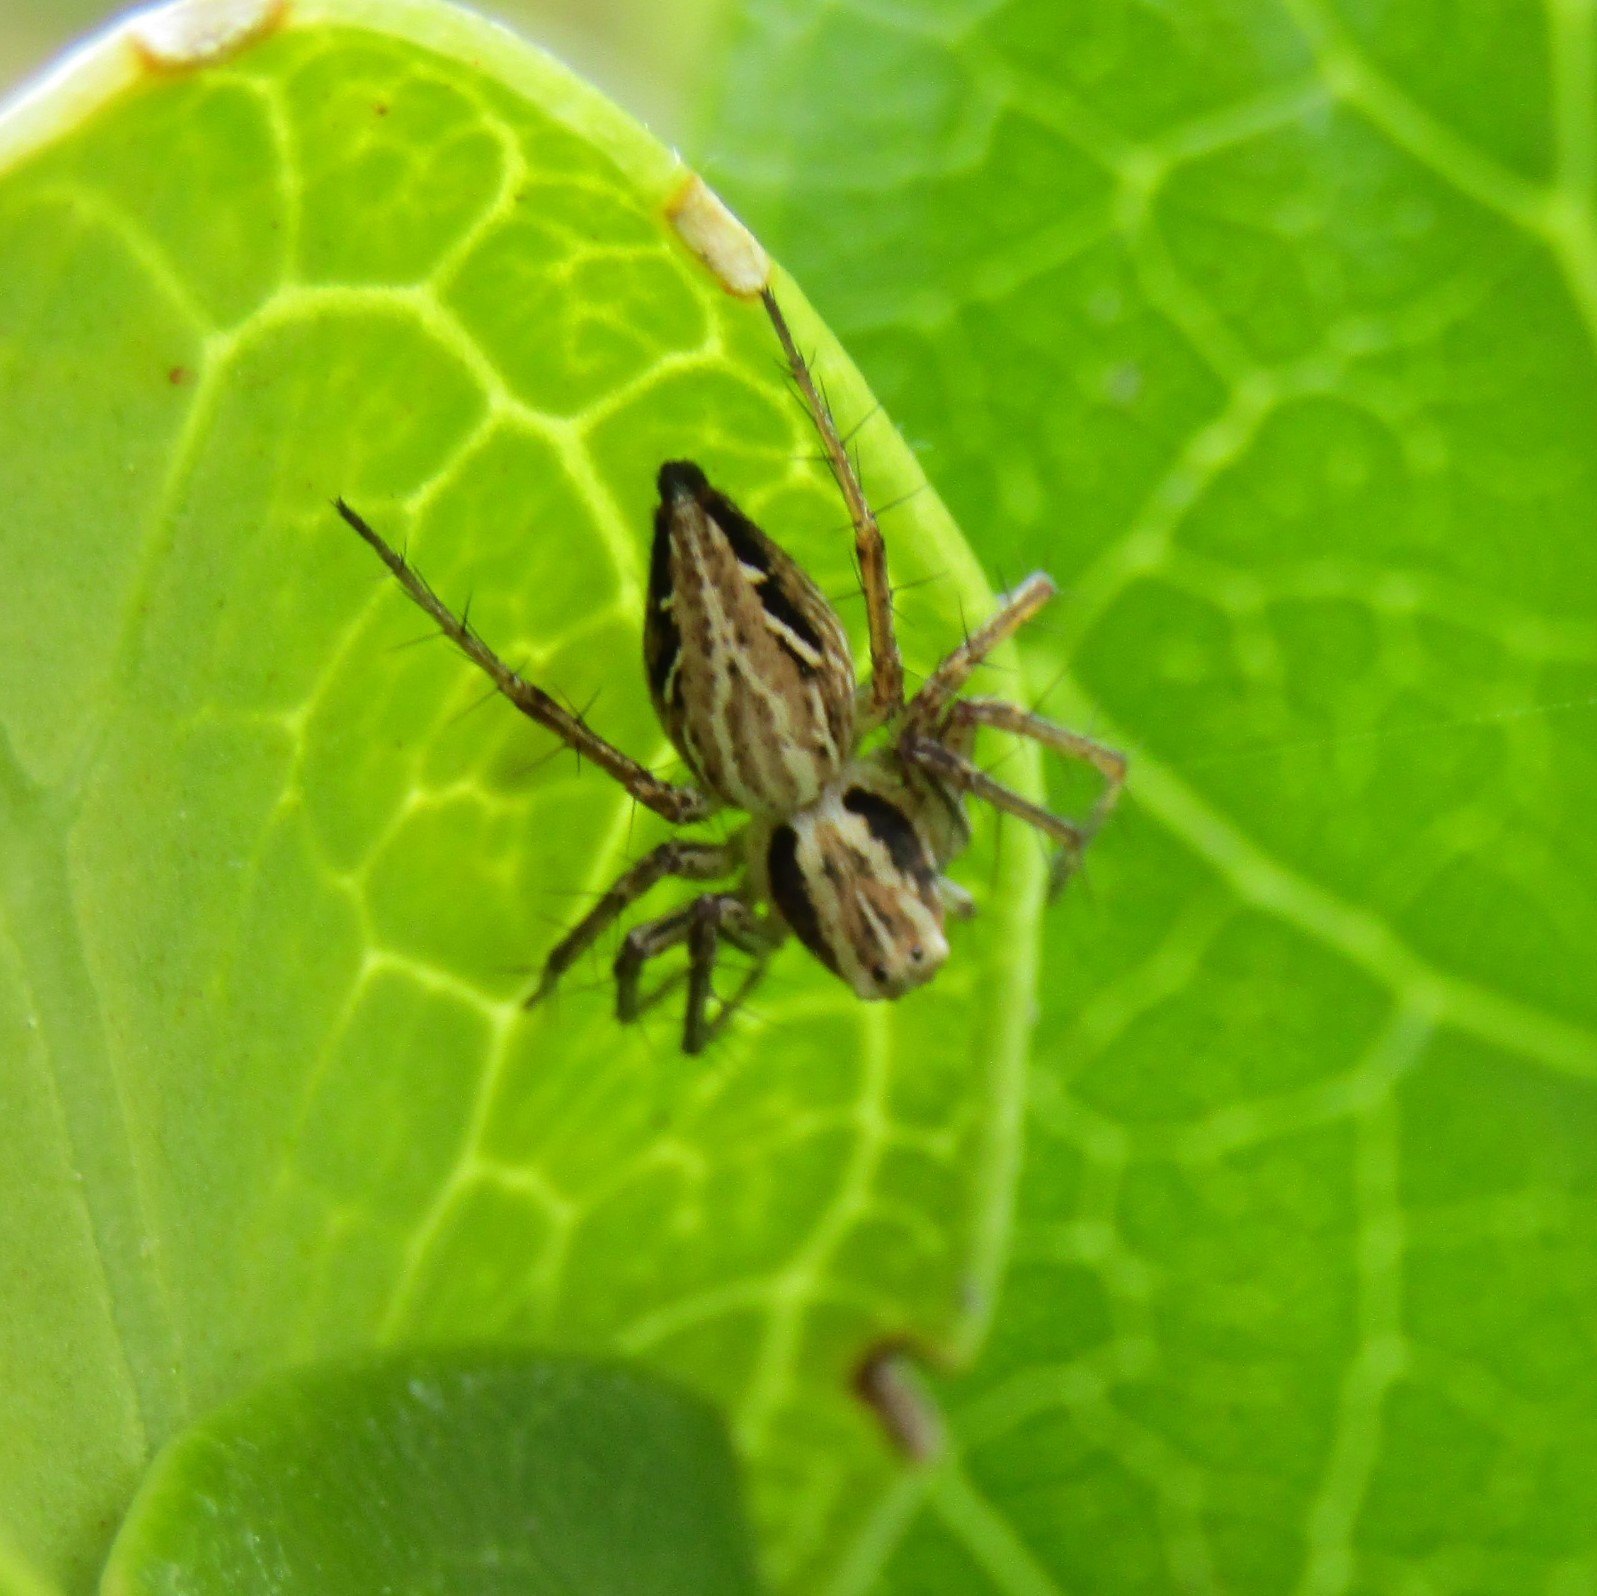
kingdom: Animalia
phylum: Arthropoda
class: Arachnida
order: Araneae
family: Oxyopidae
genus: Oxyopes
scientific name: Oxyopes gracilipes
